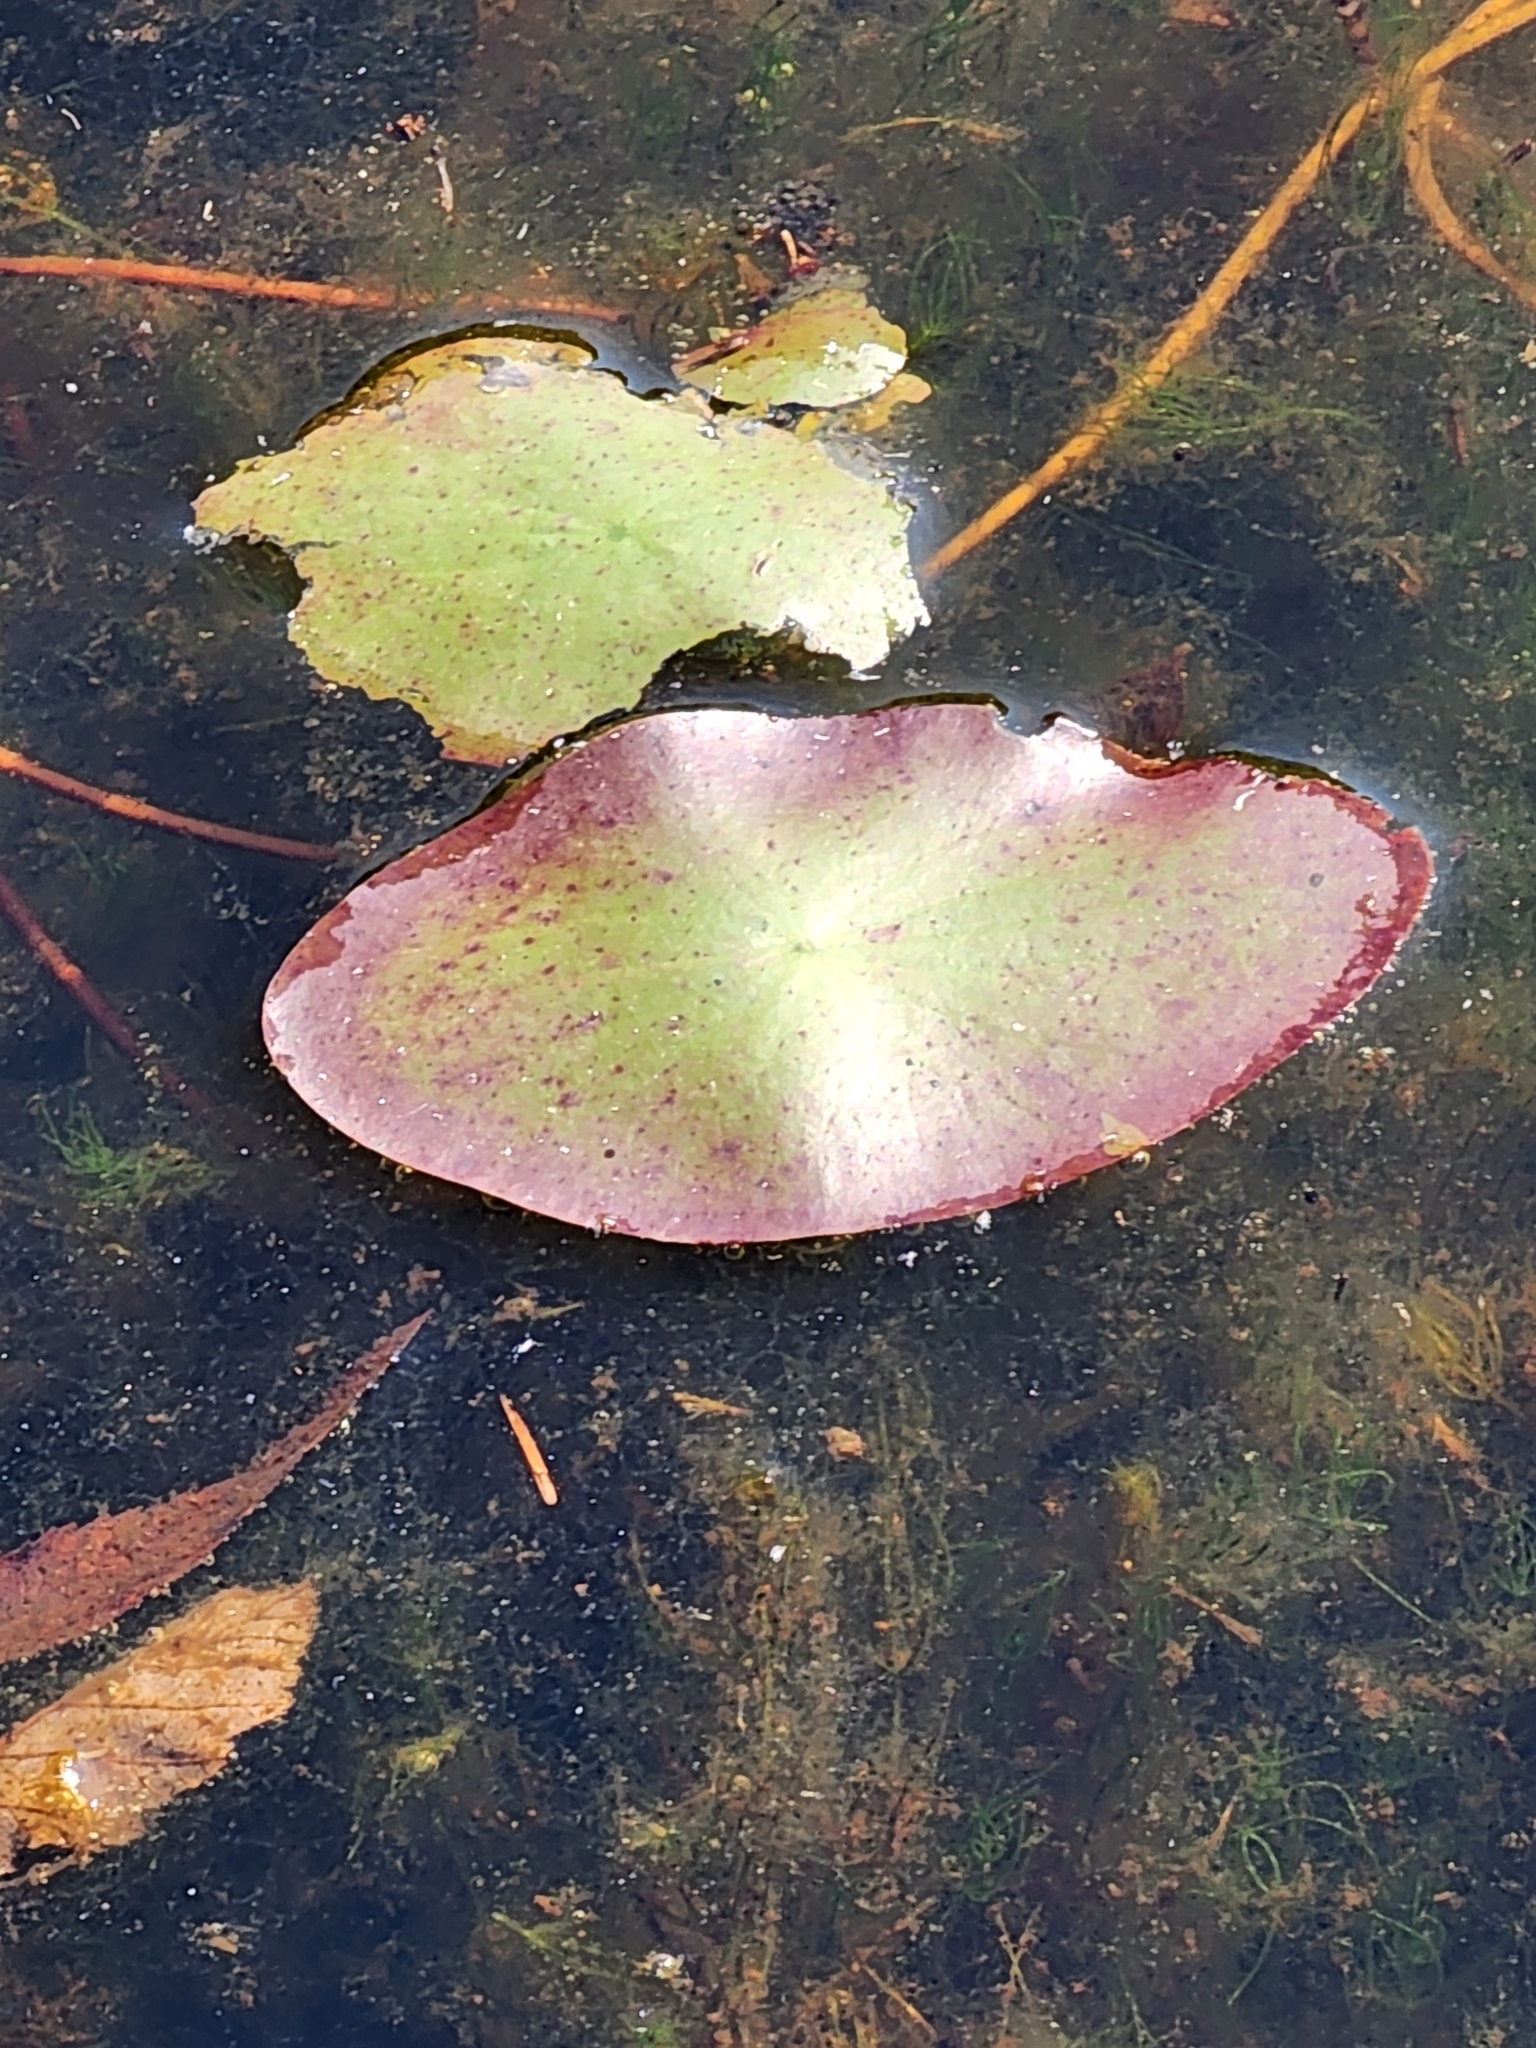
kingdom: Plantae
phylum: Tracheophyta
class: Magnoliopsida
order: Nymphaeales
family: Cabombaceae
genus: Brasenia
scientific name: Brasenia schreberi
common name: Water-shield
